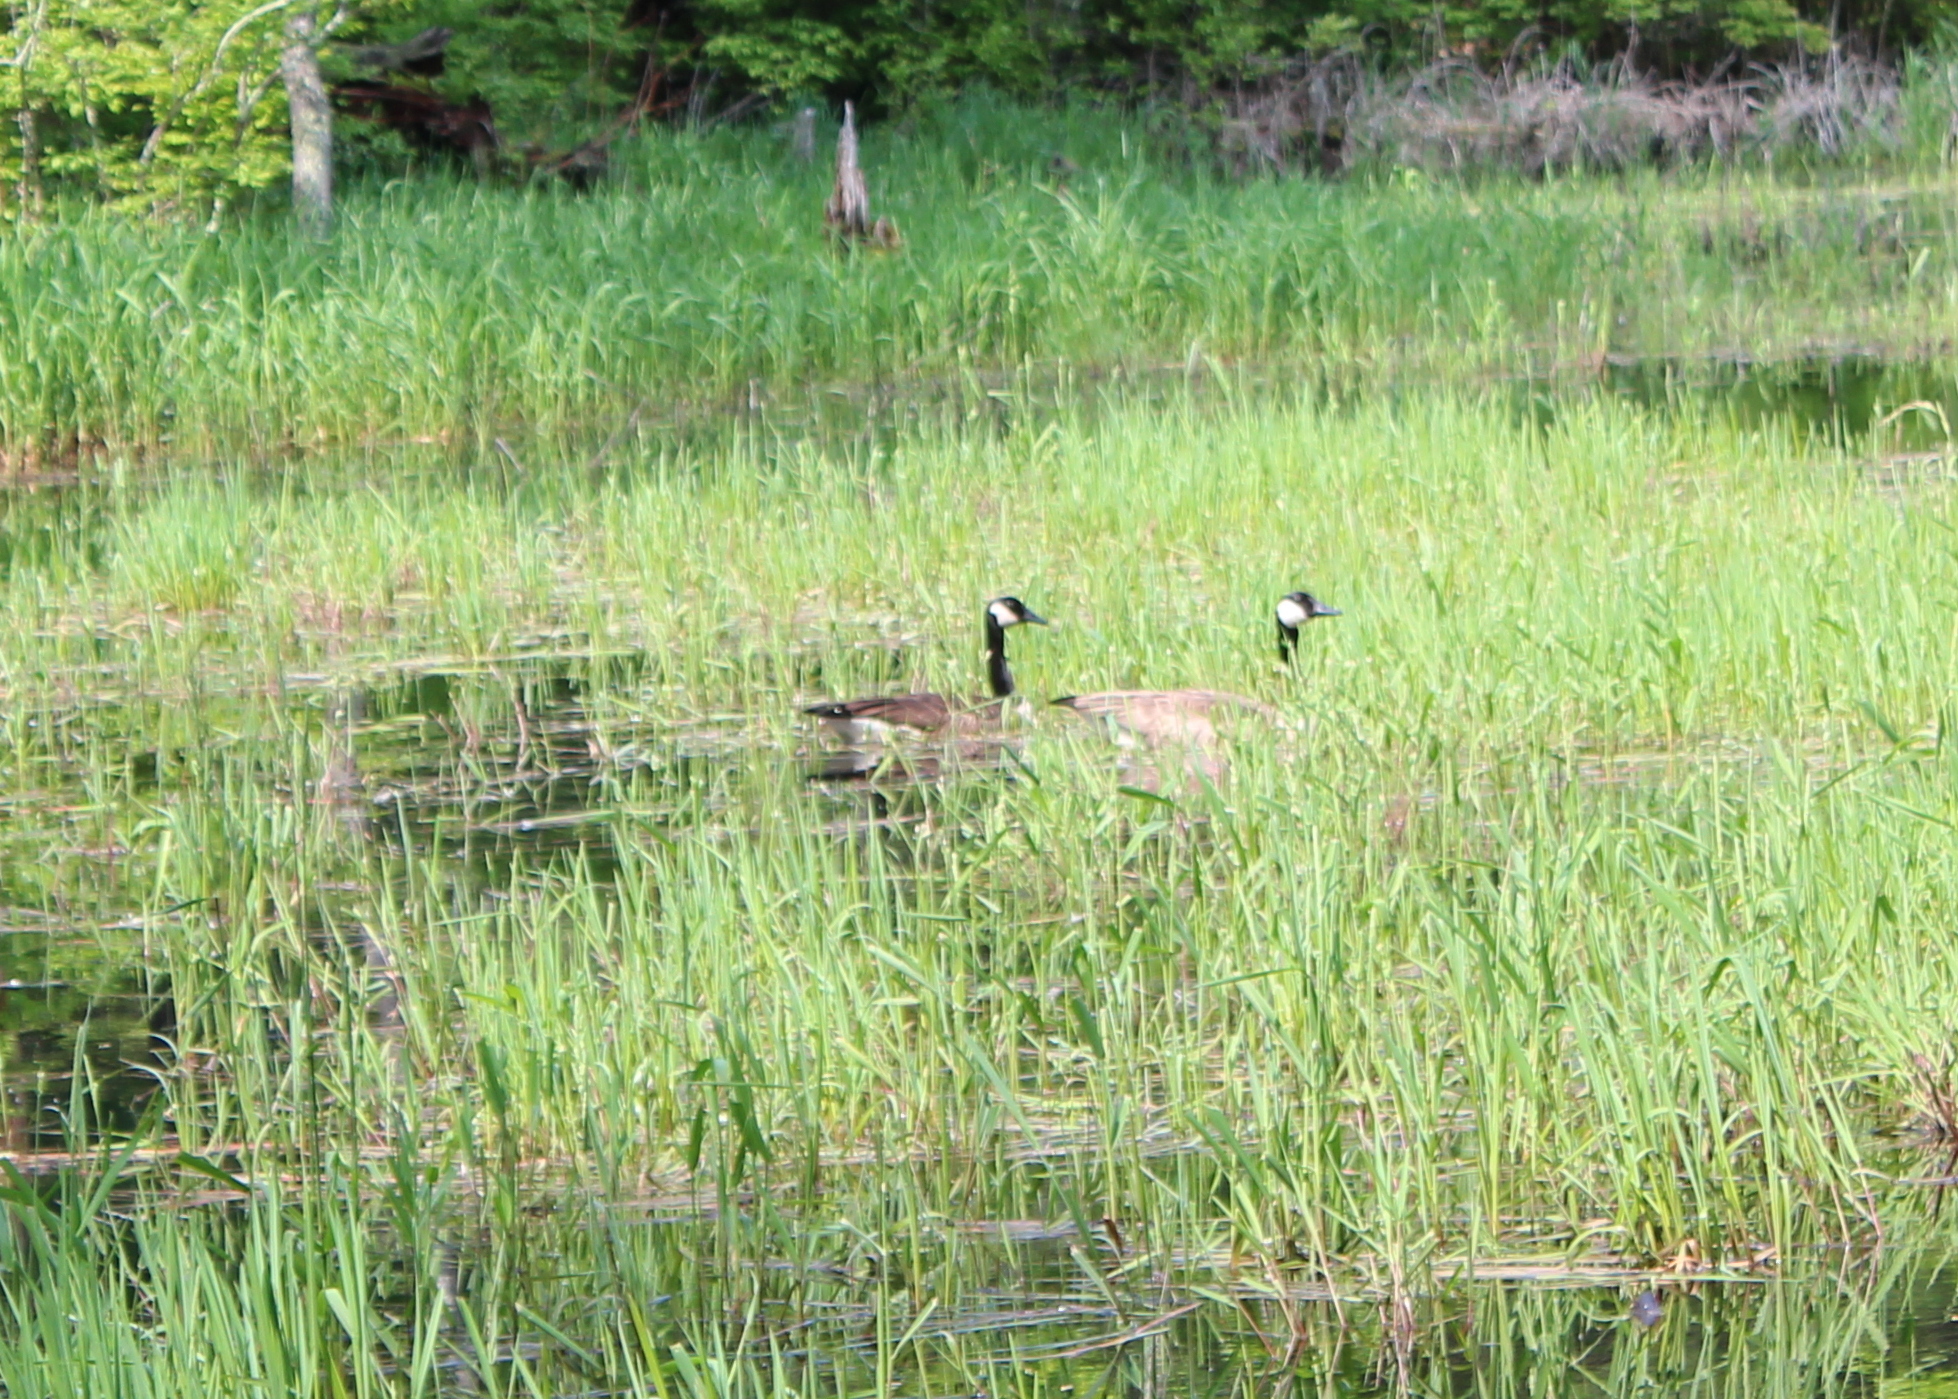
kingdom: Animalia
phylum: Chordata
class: Aves
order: Anseriformes
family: Anatidae
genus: Branta
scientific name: Branta canadensis
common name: Canada goose
